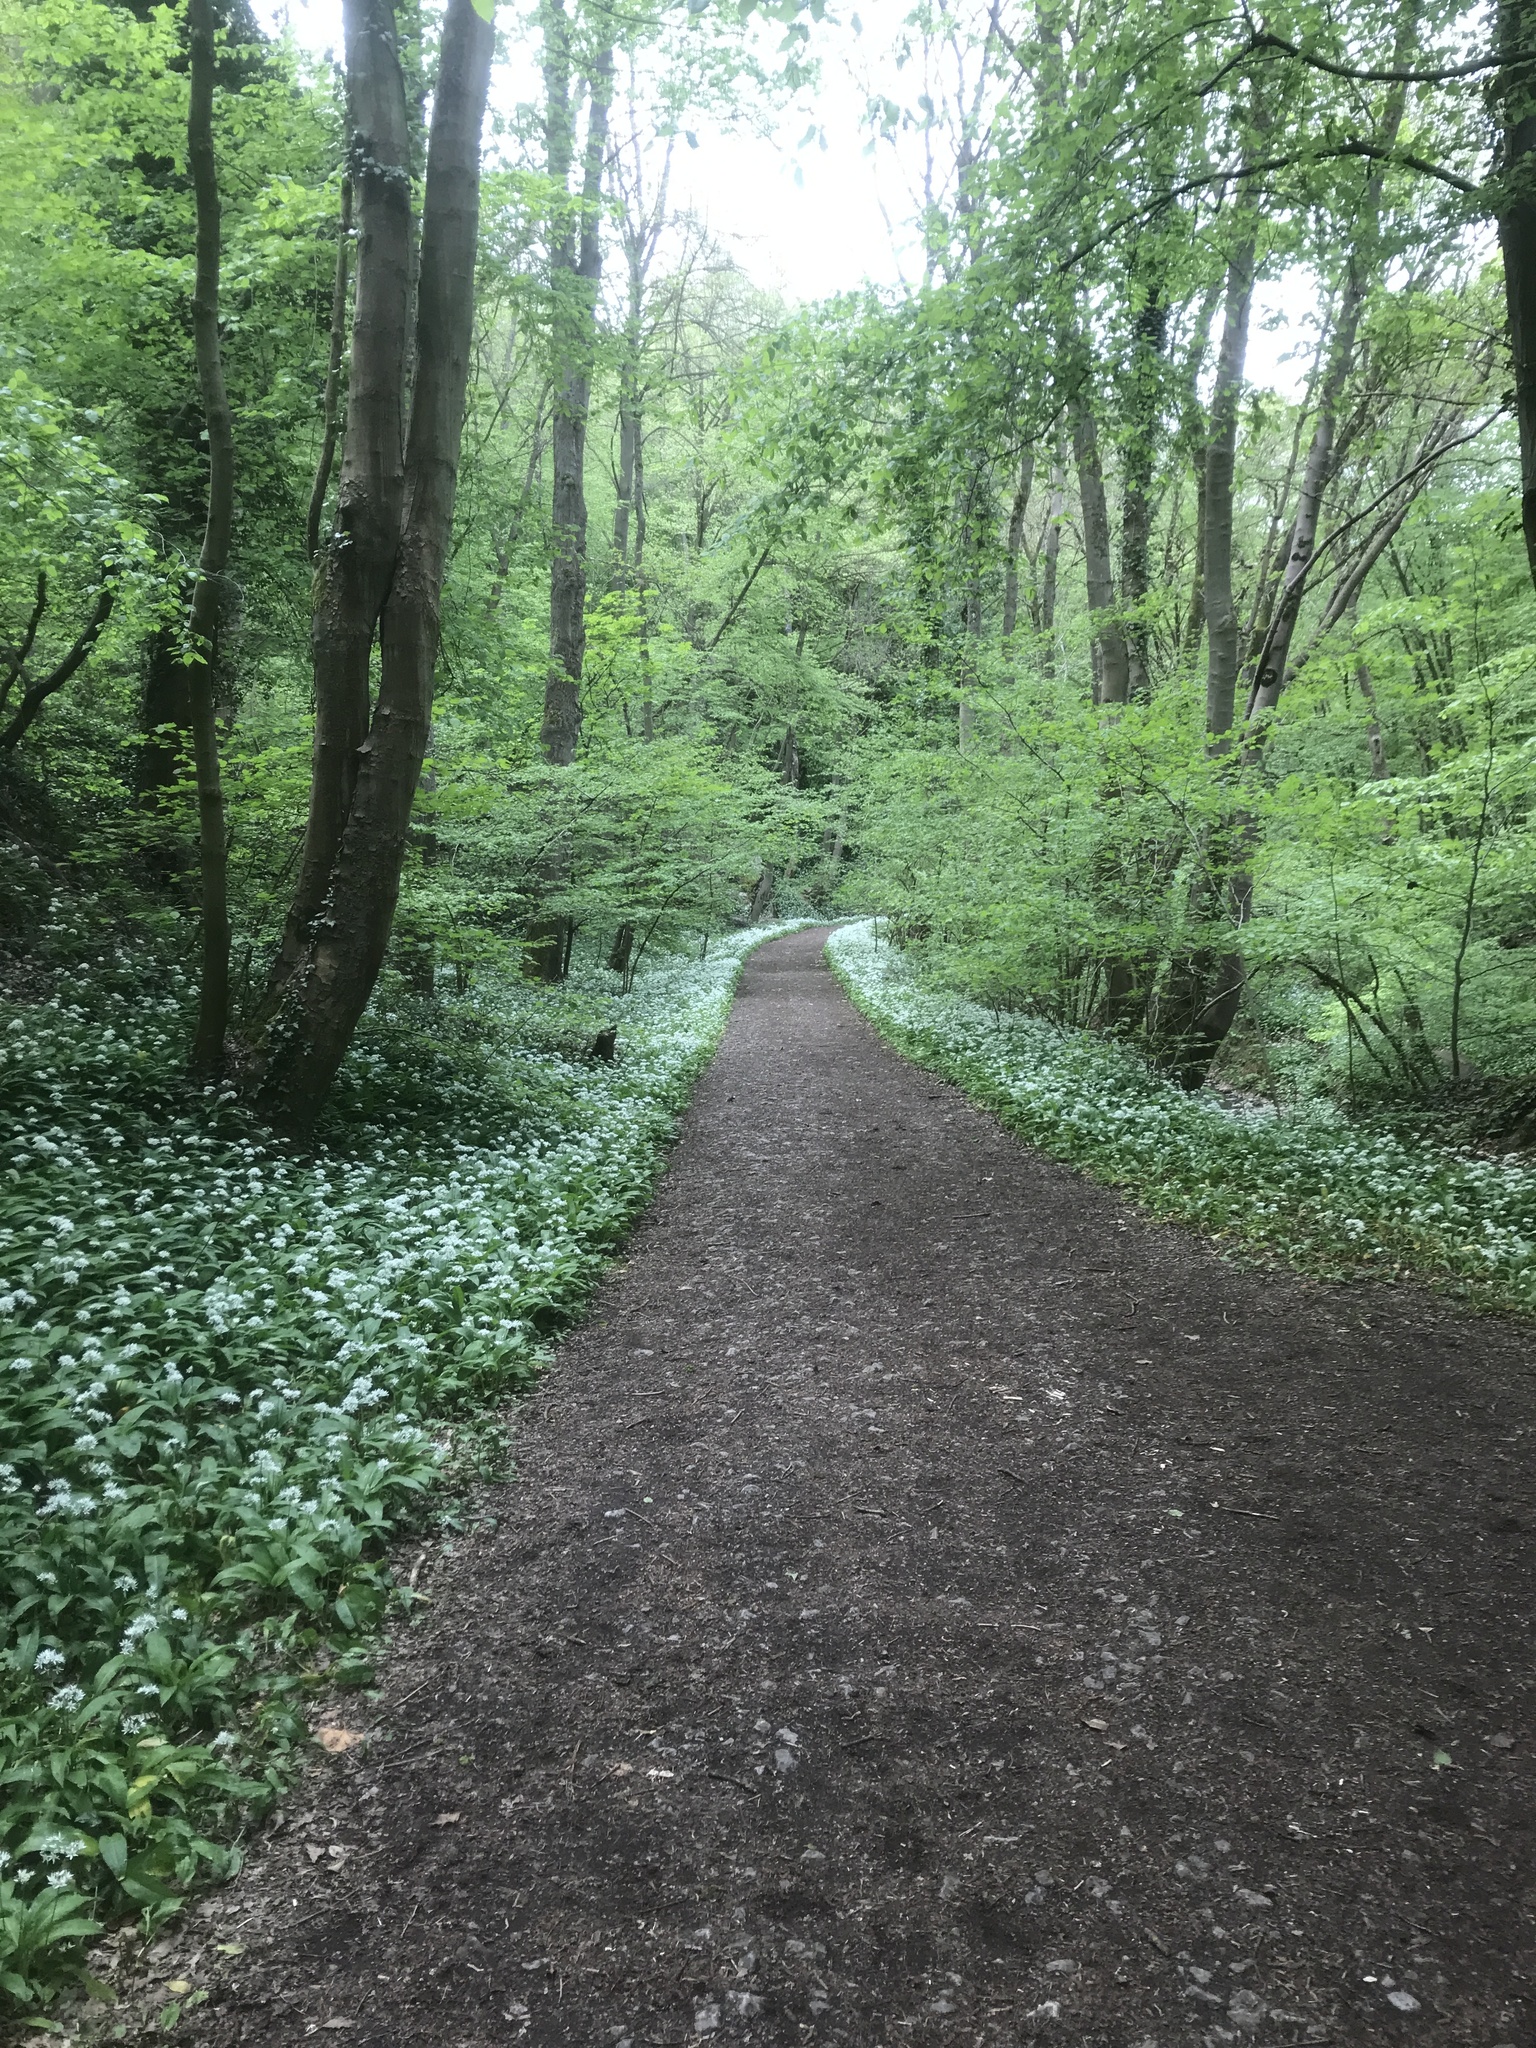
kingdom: Plantae
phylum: Tracheophyta
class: Liliopsida
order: Asparagales
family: Amaryllidaceae
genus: Allium
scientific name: Allium ursinum
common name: Ramsons
